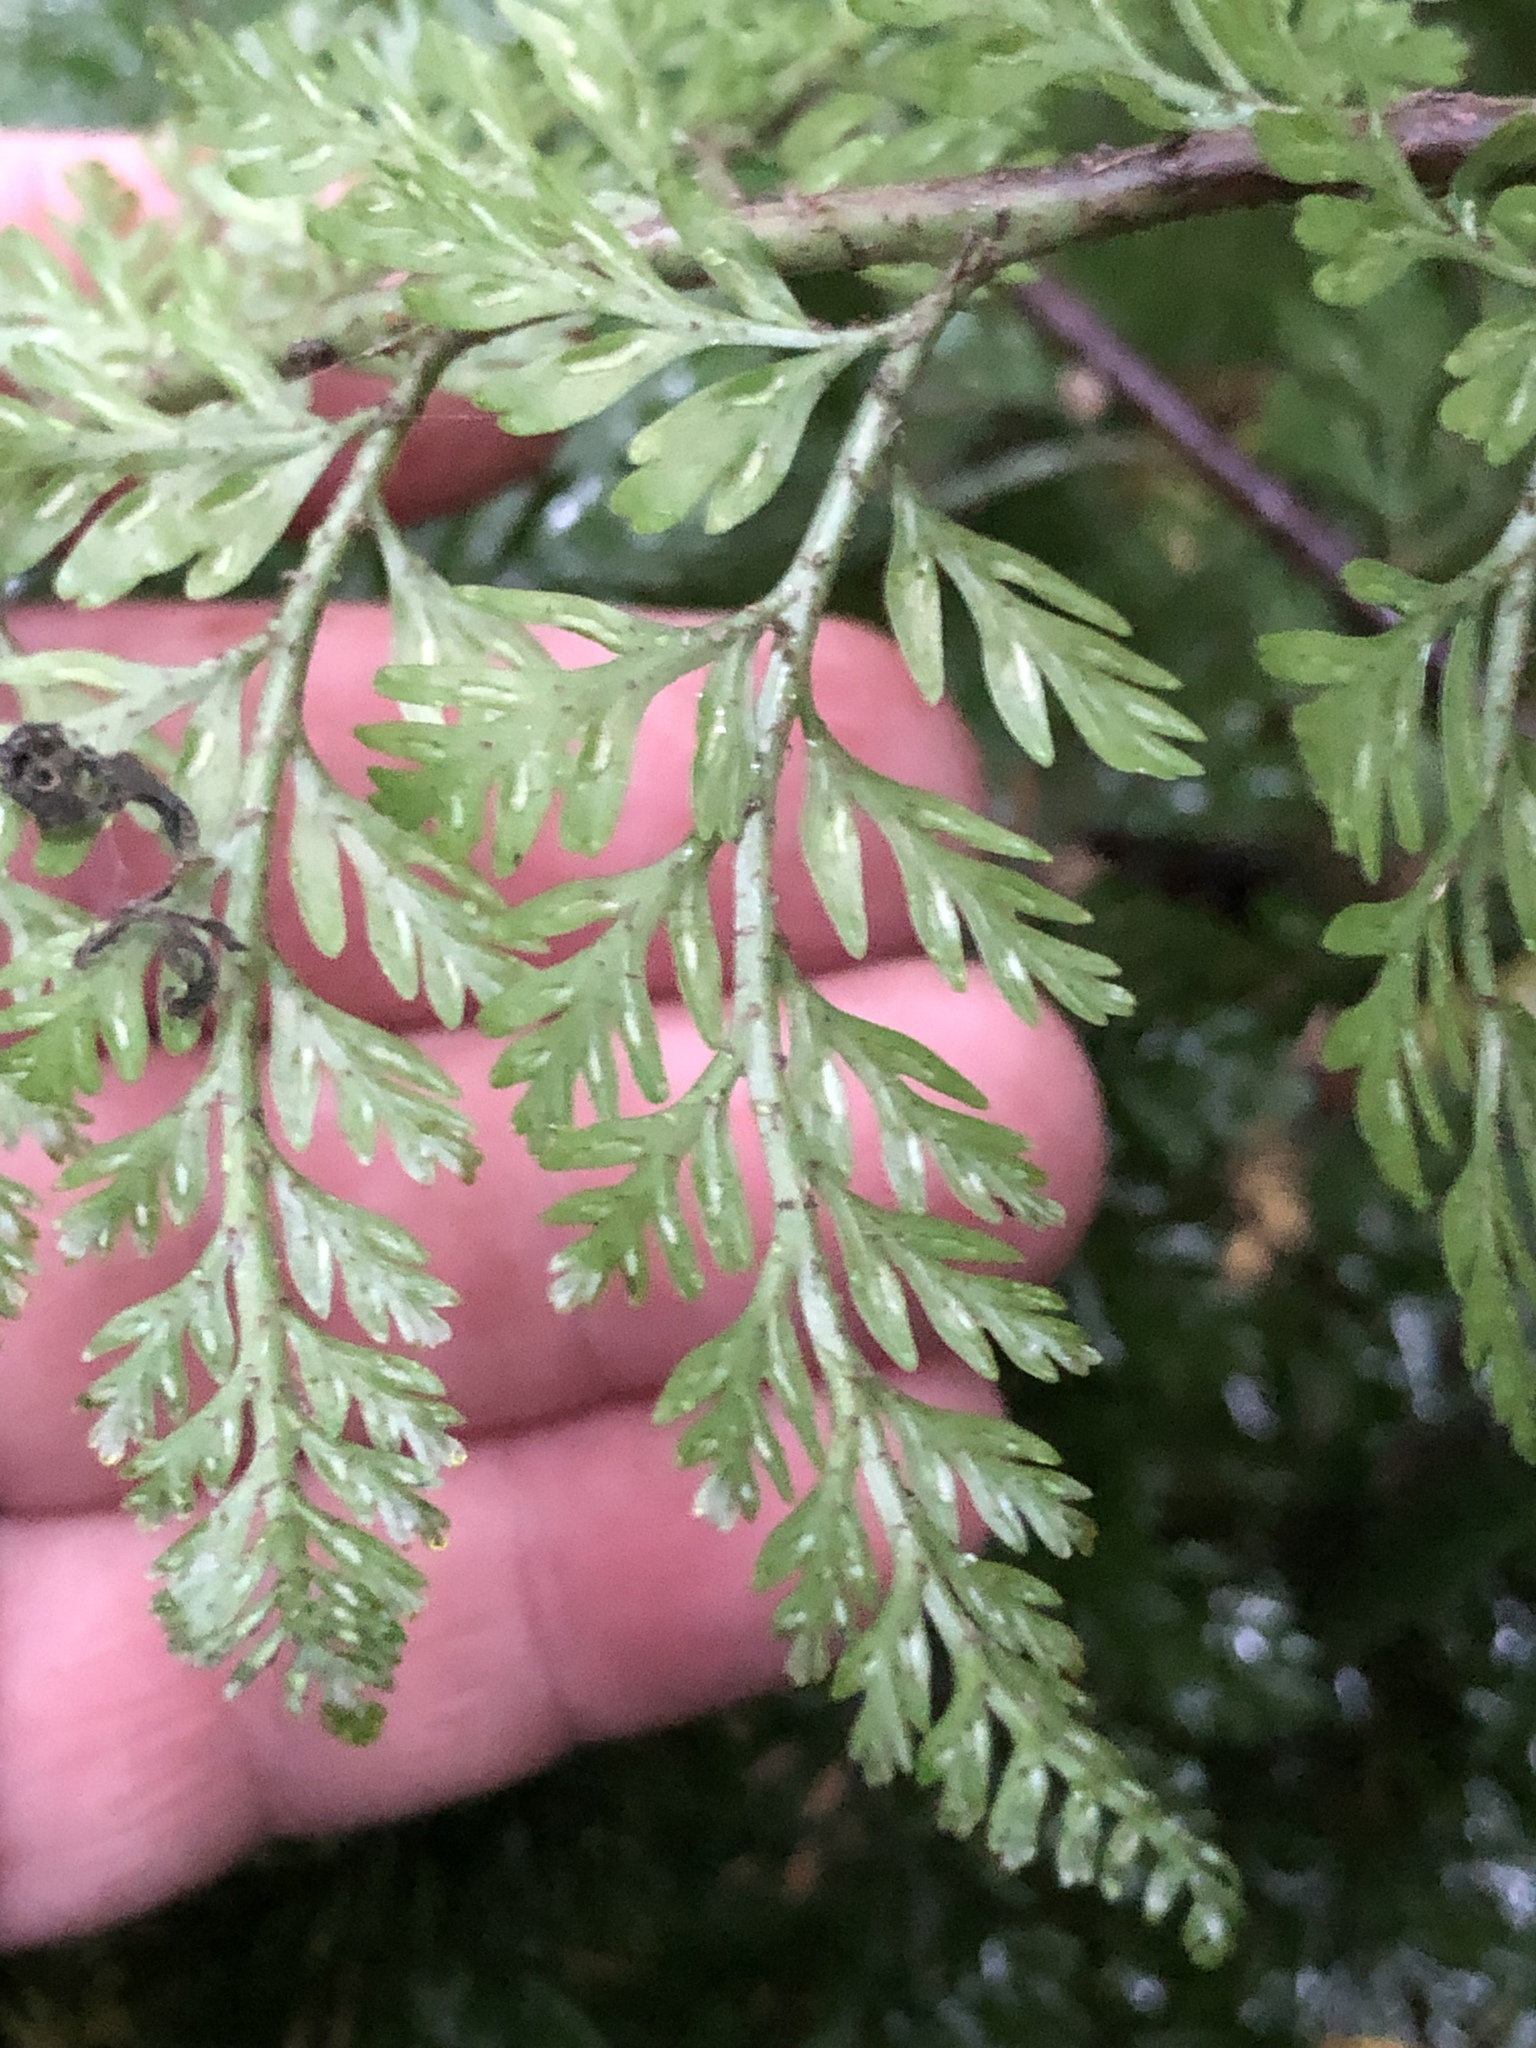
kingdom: Plantae
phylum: Tracheophyta
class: Polypodiopsida
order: Polypodiales
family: Aspleniaceae
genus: Asplenium
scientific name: Asplenium
